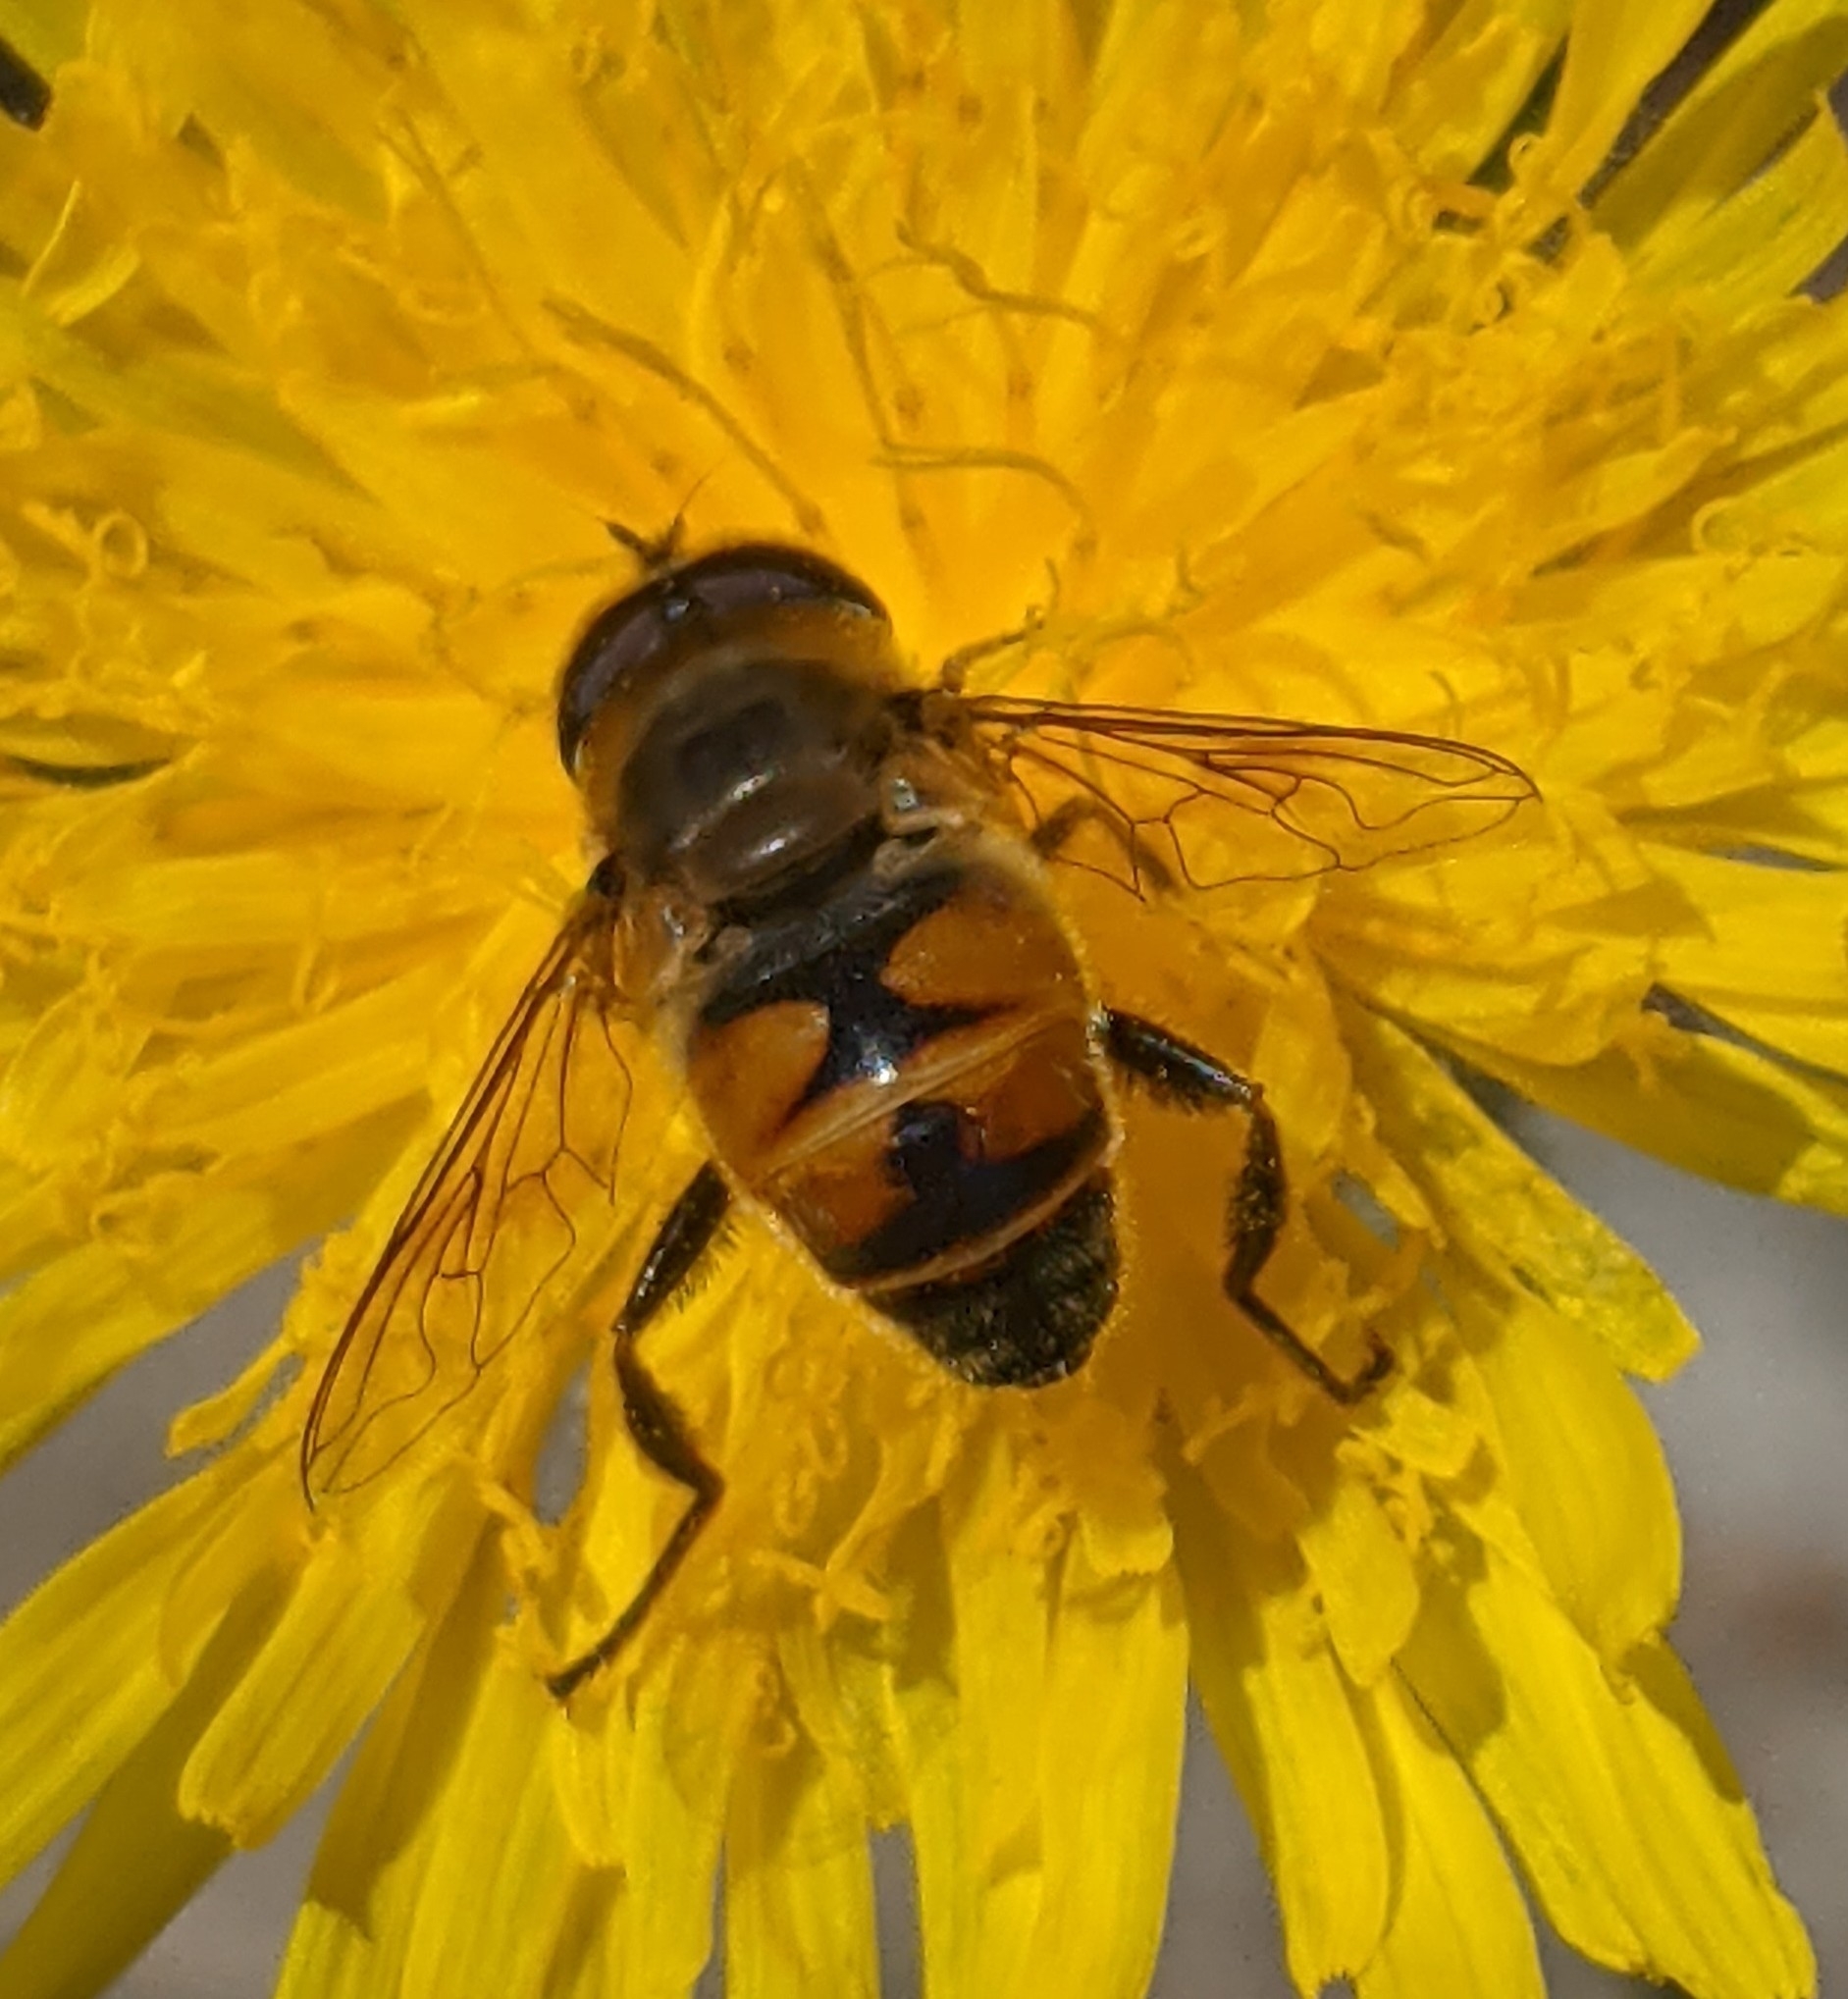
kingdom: Animalia
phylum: Arthropoda
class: Insecta
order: Diptera
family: Syrphidae
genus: Eristalis
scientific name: Eristalis tenax
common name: Drone fly
